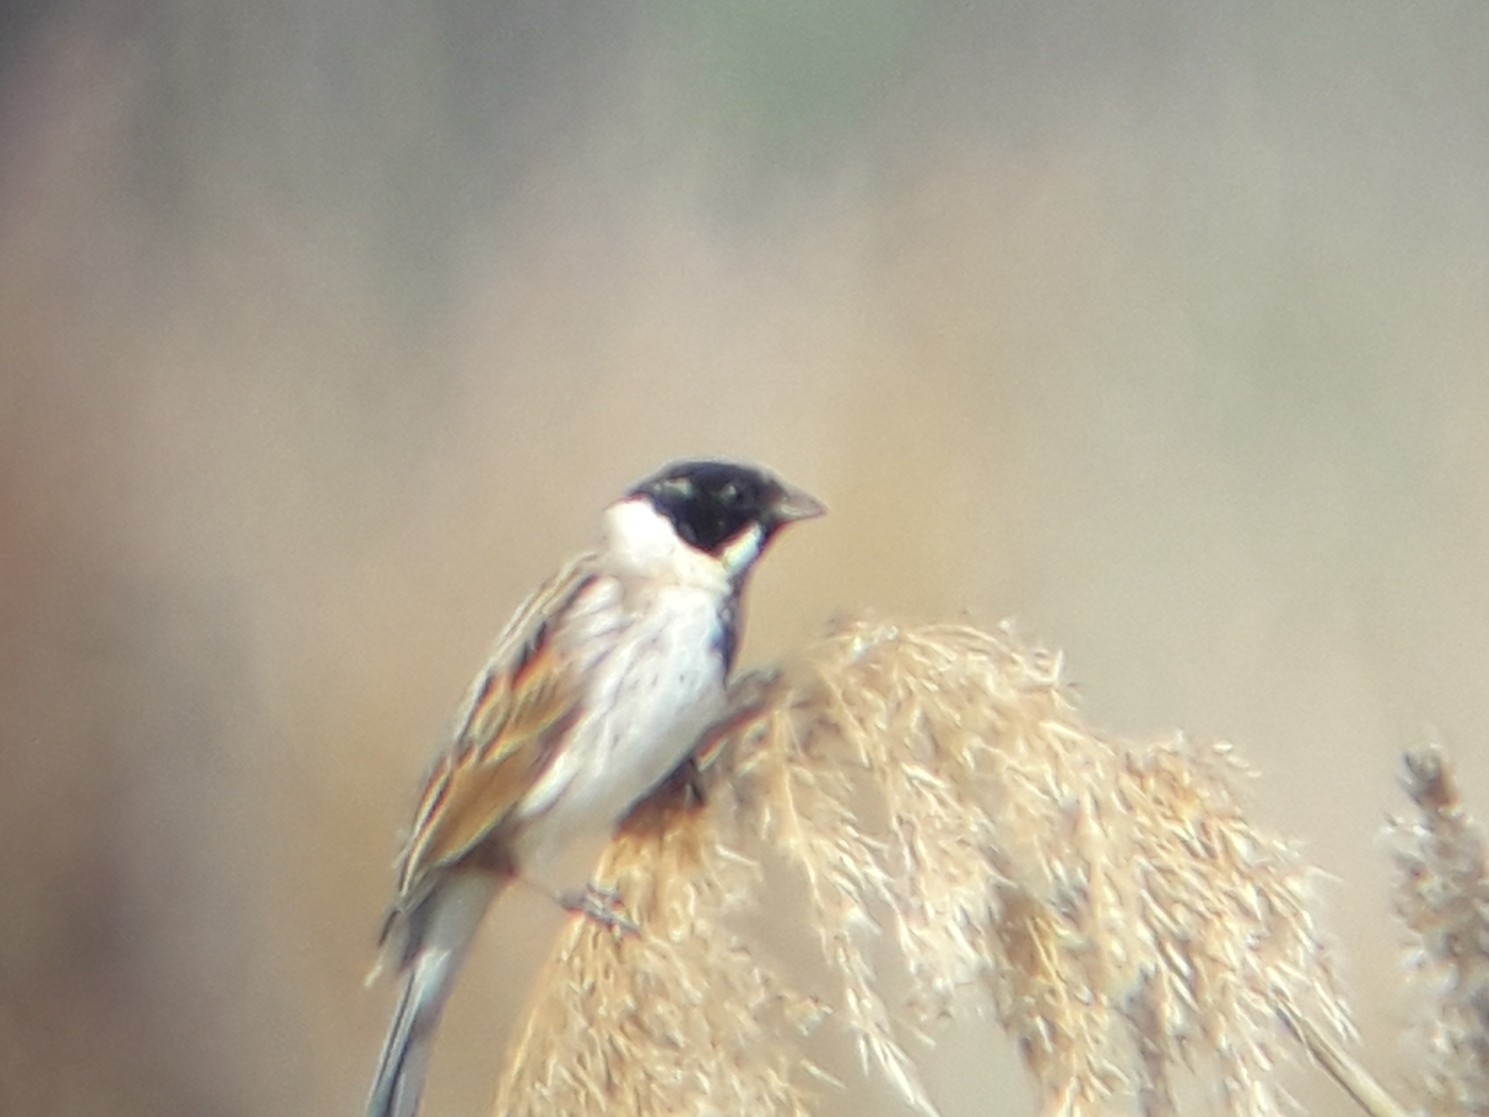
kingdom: Animalia
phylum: Chordata
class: Aves
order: Passeriformes
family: Emberizidae
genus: Emberiza
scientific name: Emberiza schoeniclus
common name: Reed bunting
